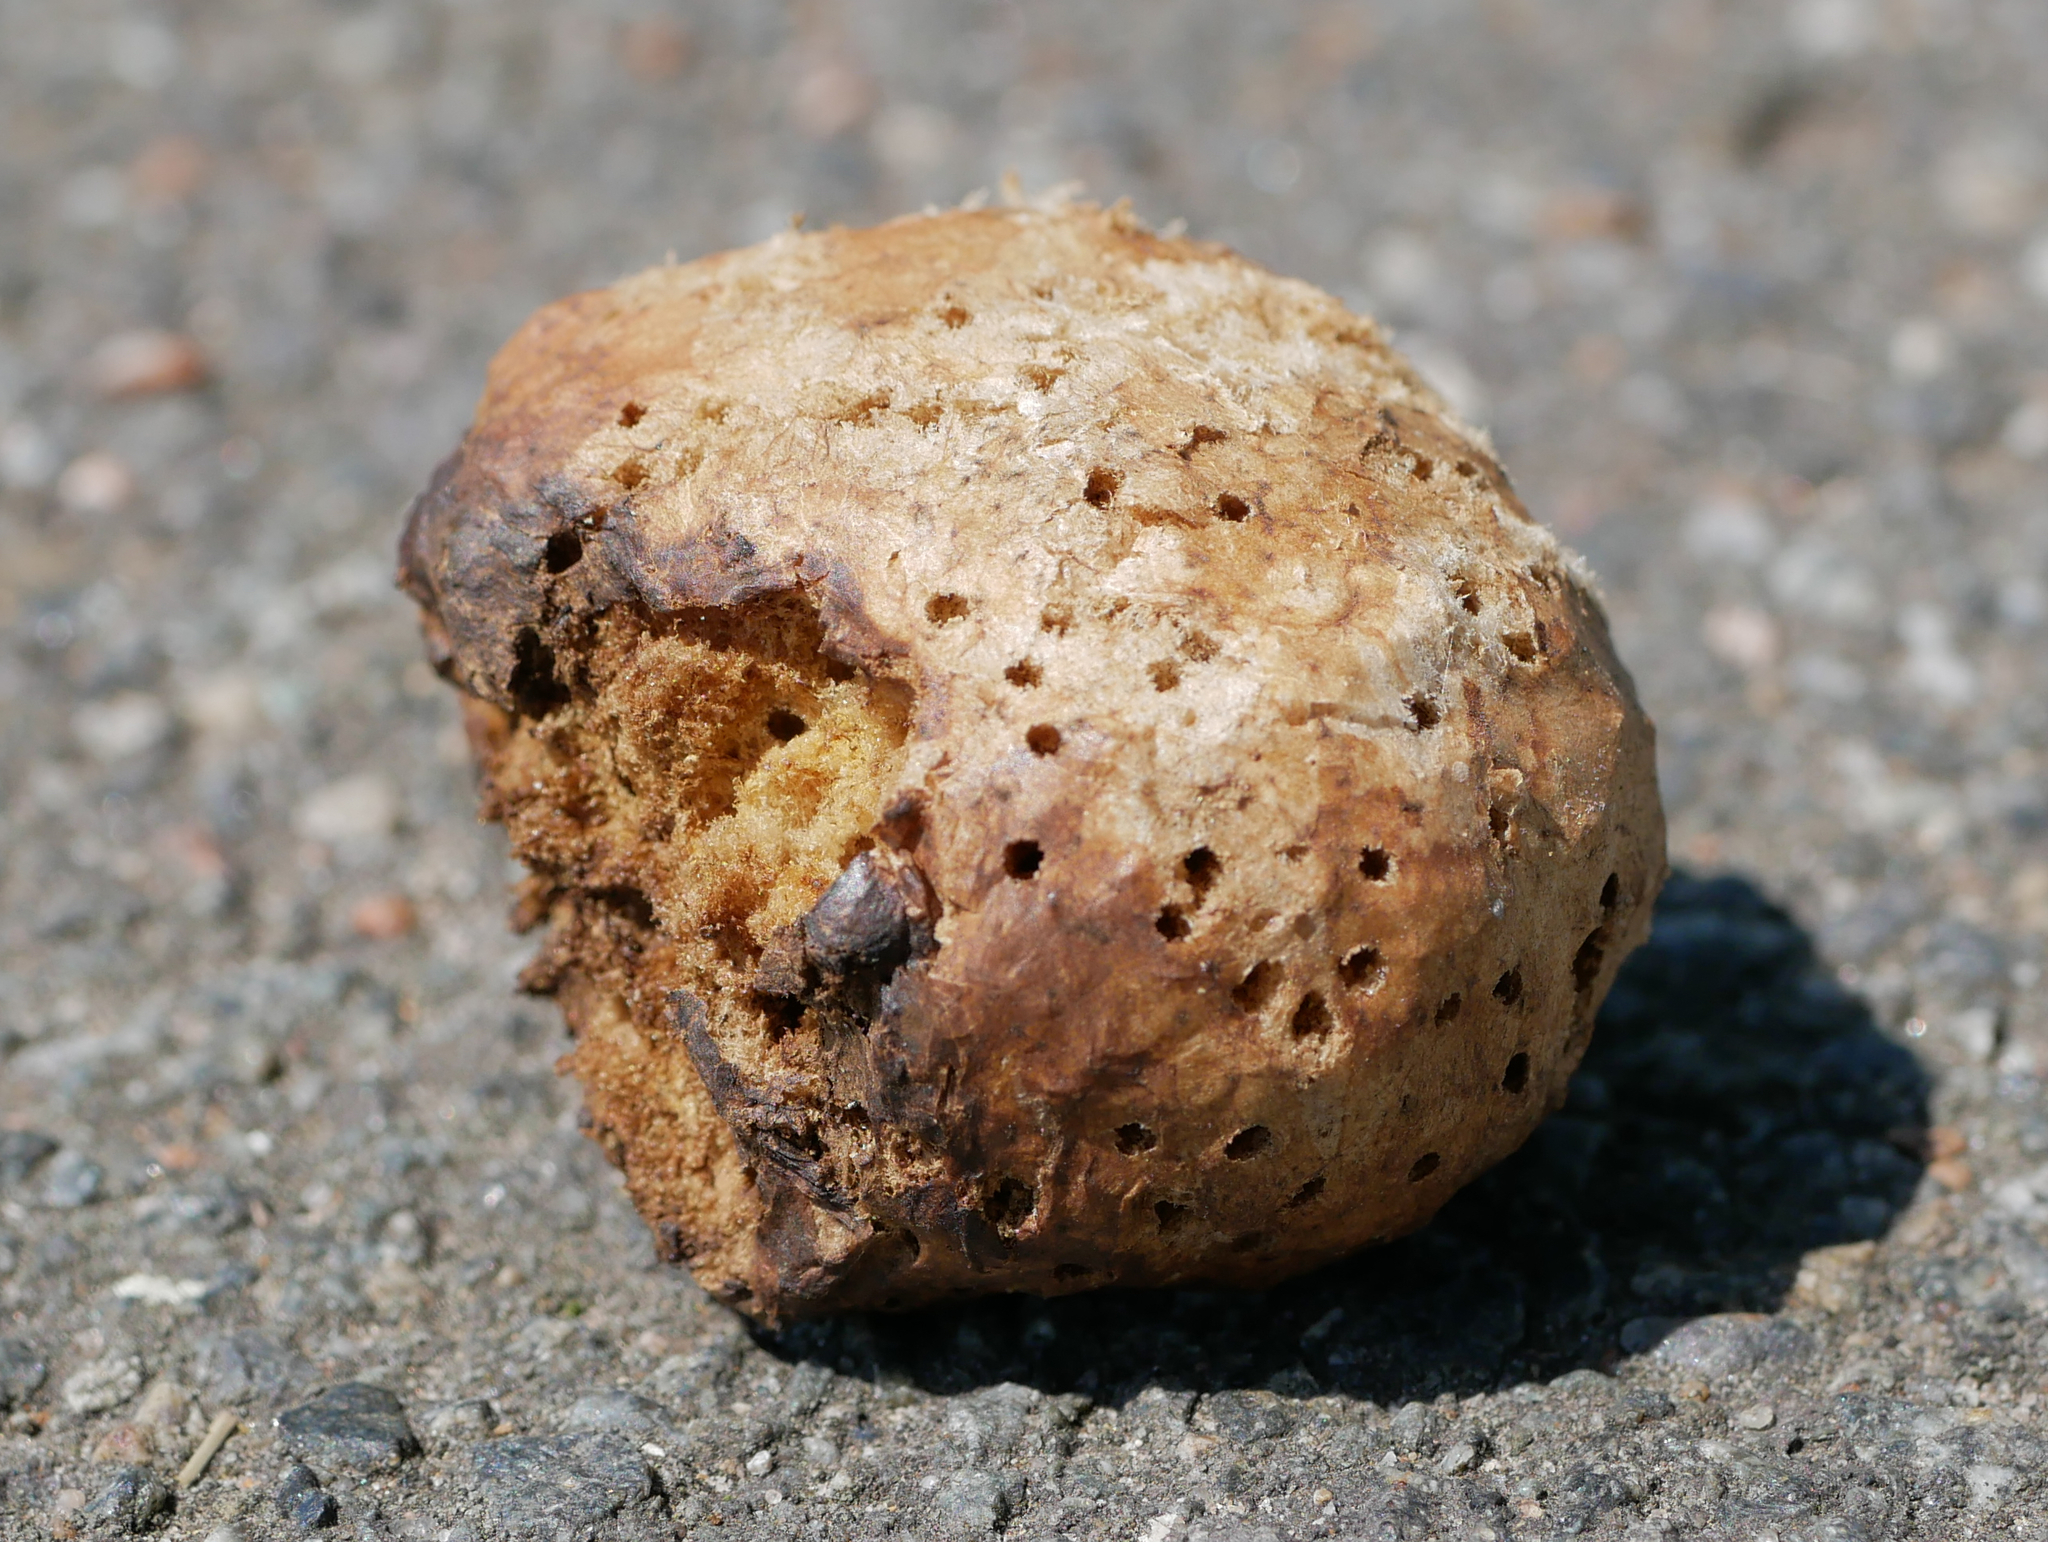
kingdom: Animalia
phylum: Arthropoda
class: Insecta
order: Hymenoptera
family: Cynipidae
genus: Biorhiza
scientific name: Biorhiza pallida
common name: Oak apple
